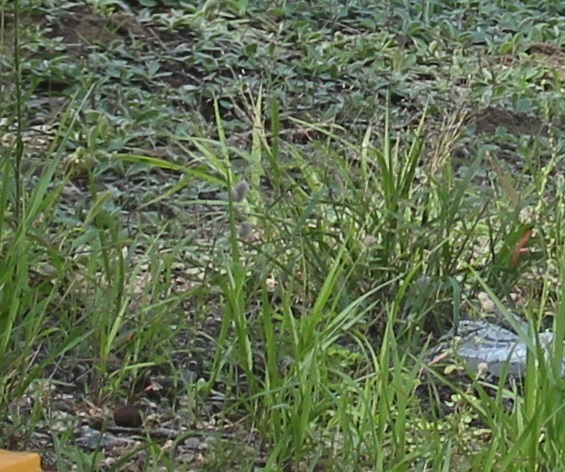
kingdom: Plantae
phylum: Tracheophyta
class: Magnoliopsida
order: Fabales
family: Fabaceae
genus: Trifolium
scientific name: Trifolium arvense
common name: Hare's-foot clover
